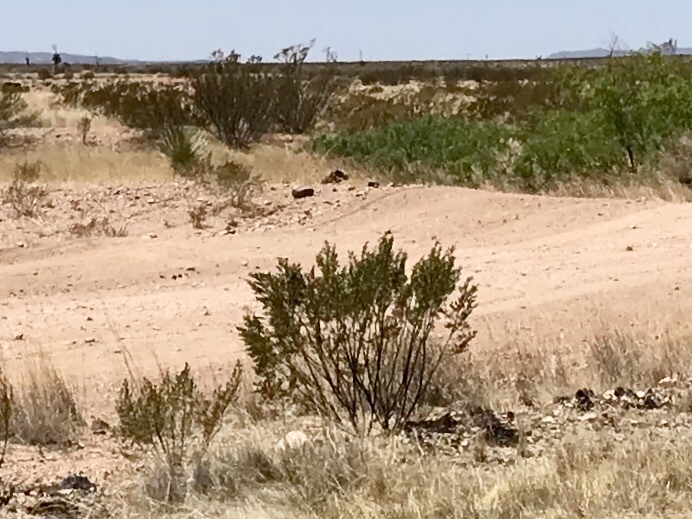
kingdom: Plantae
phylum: Tracheophyta
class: Magnoliopsida
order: Zygophyllales
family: Zygophyllaceae
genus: Larrea
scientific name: Larrea tridentata
